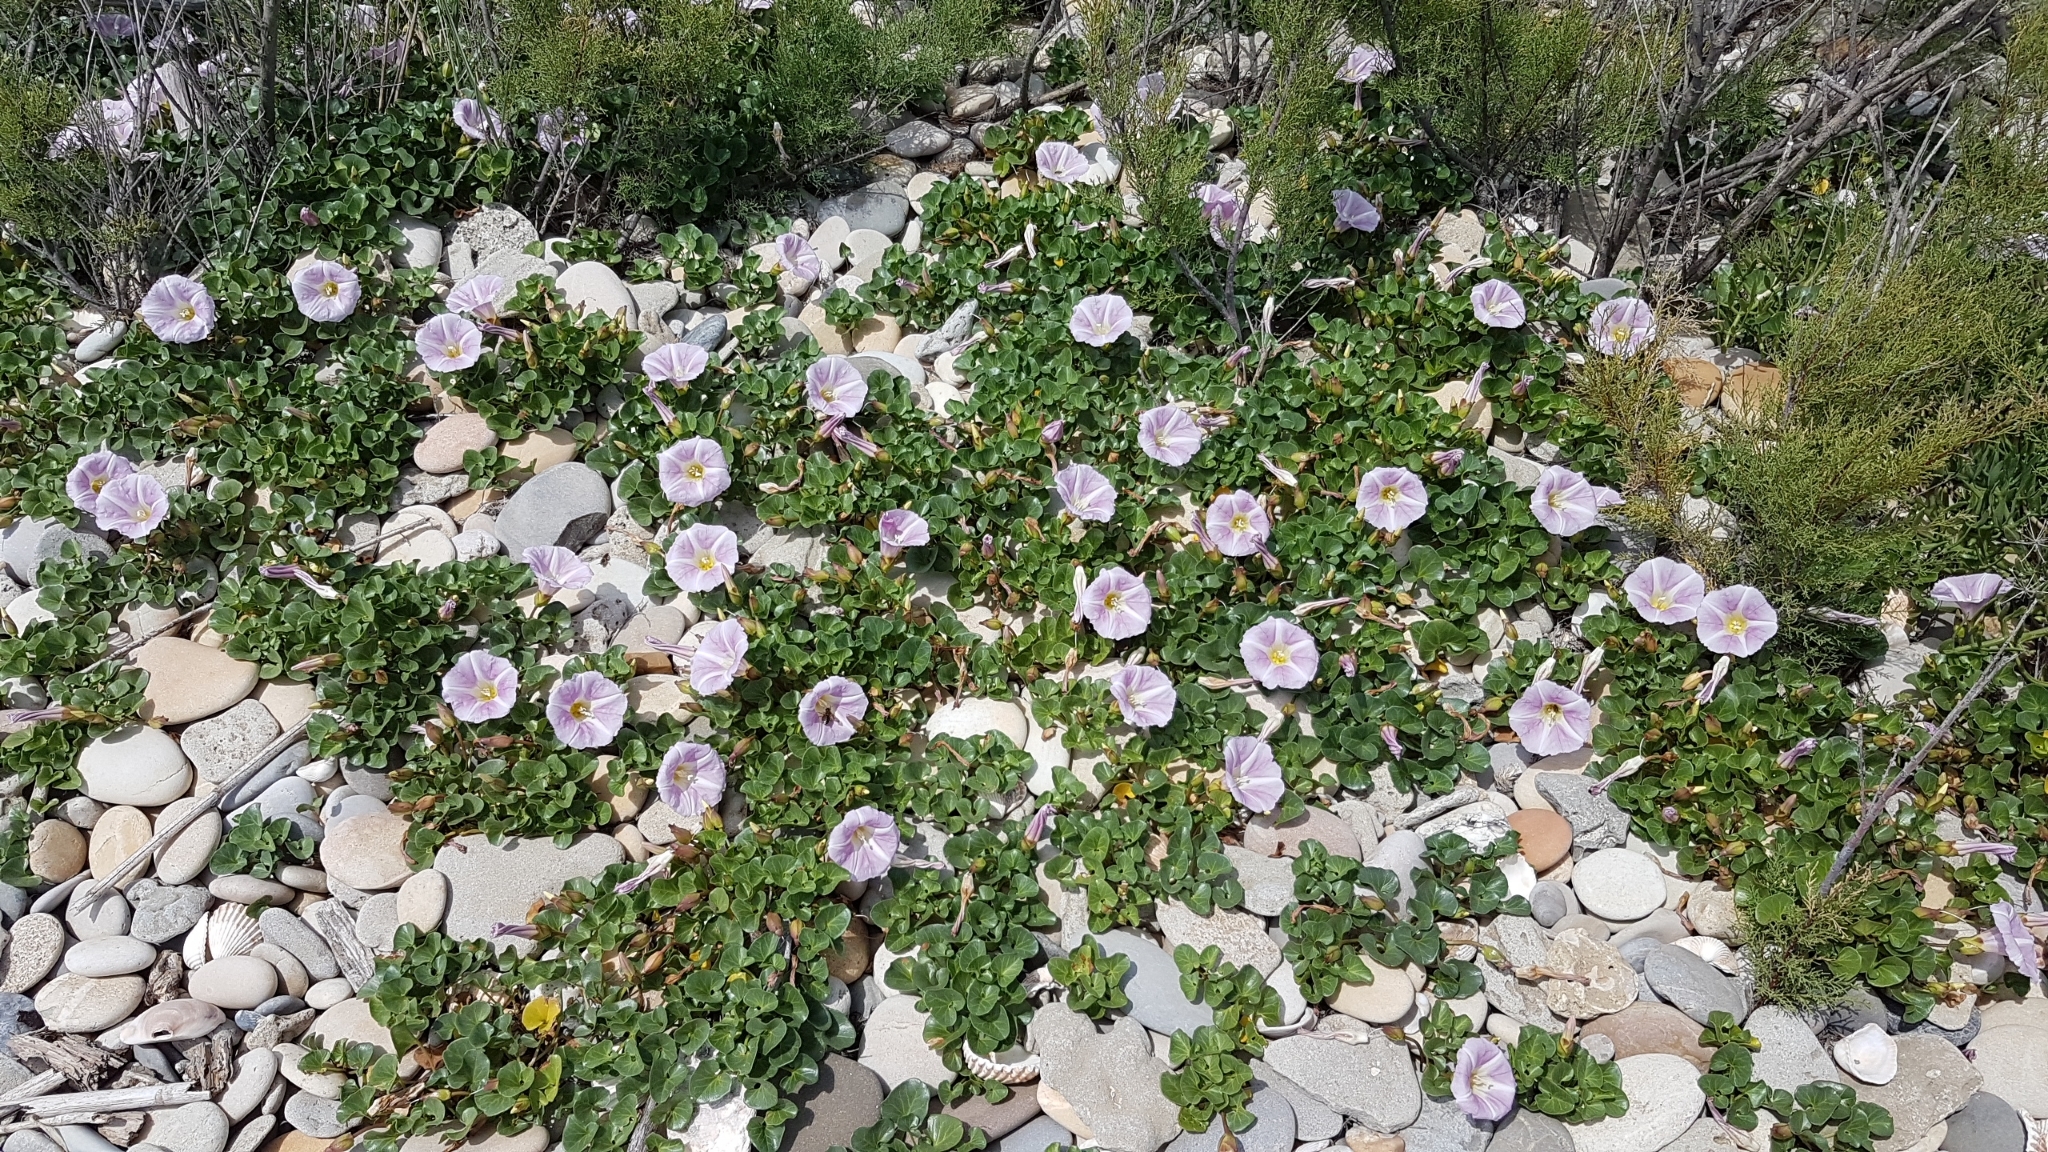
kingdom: Plantae
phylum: Tracheophyta
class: Magnoliopsida
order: Solanales
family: Convolvulaceae
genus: Calystegia
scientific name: Calystegia soldanella
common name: Sea bindweed
